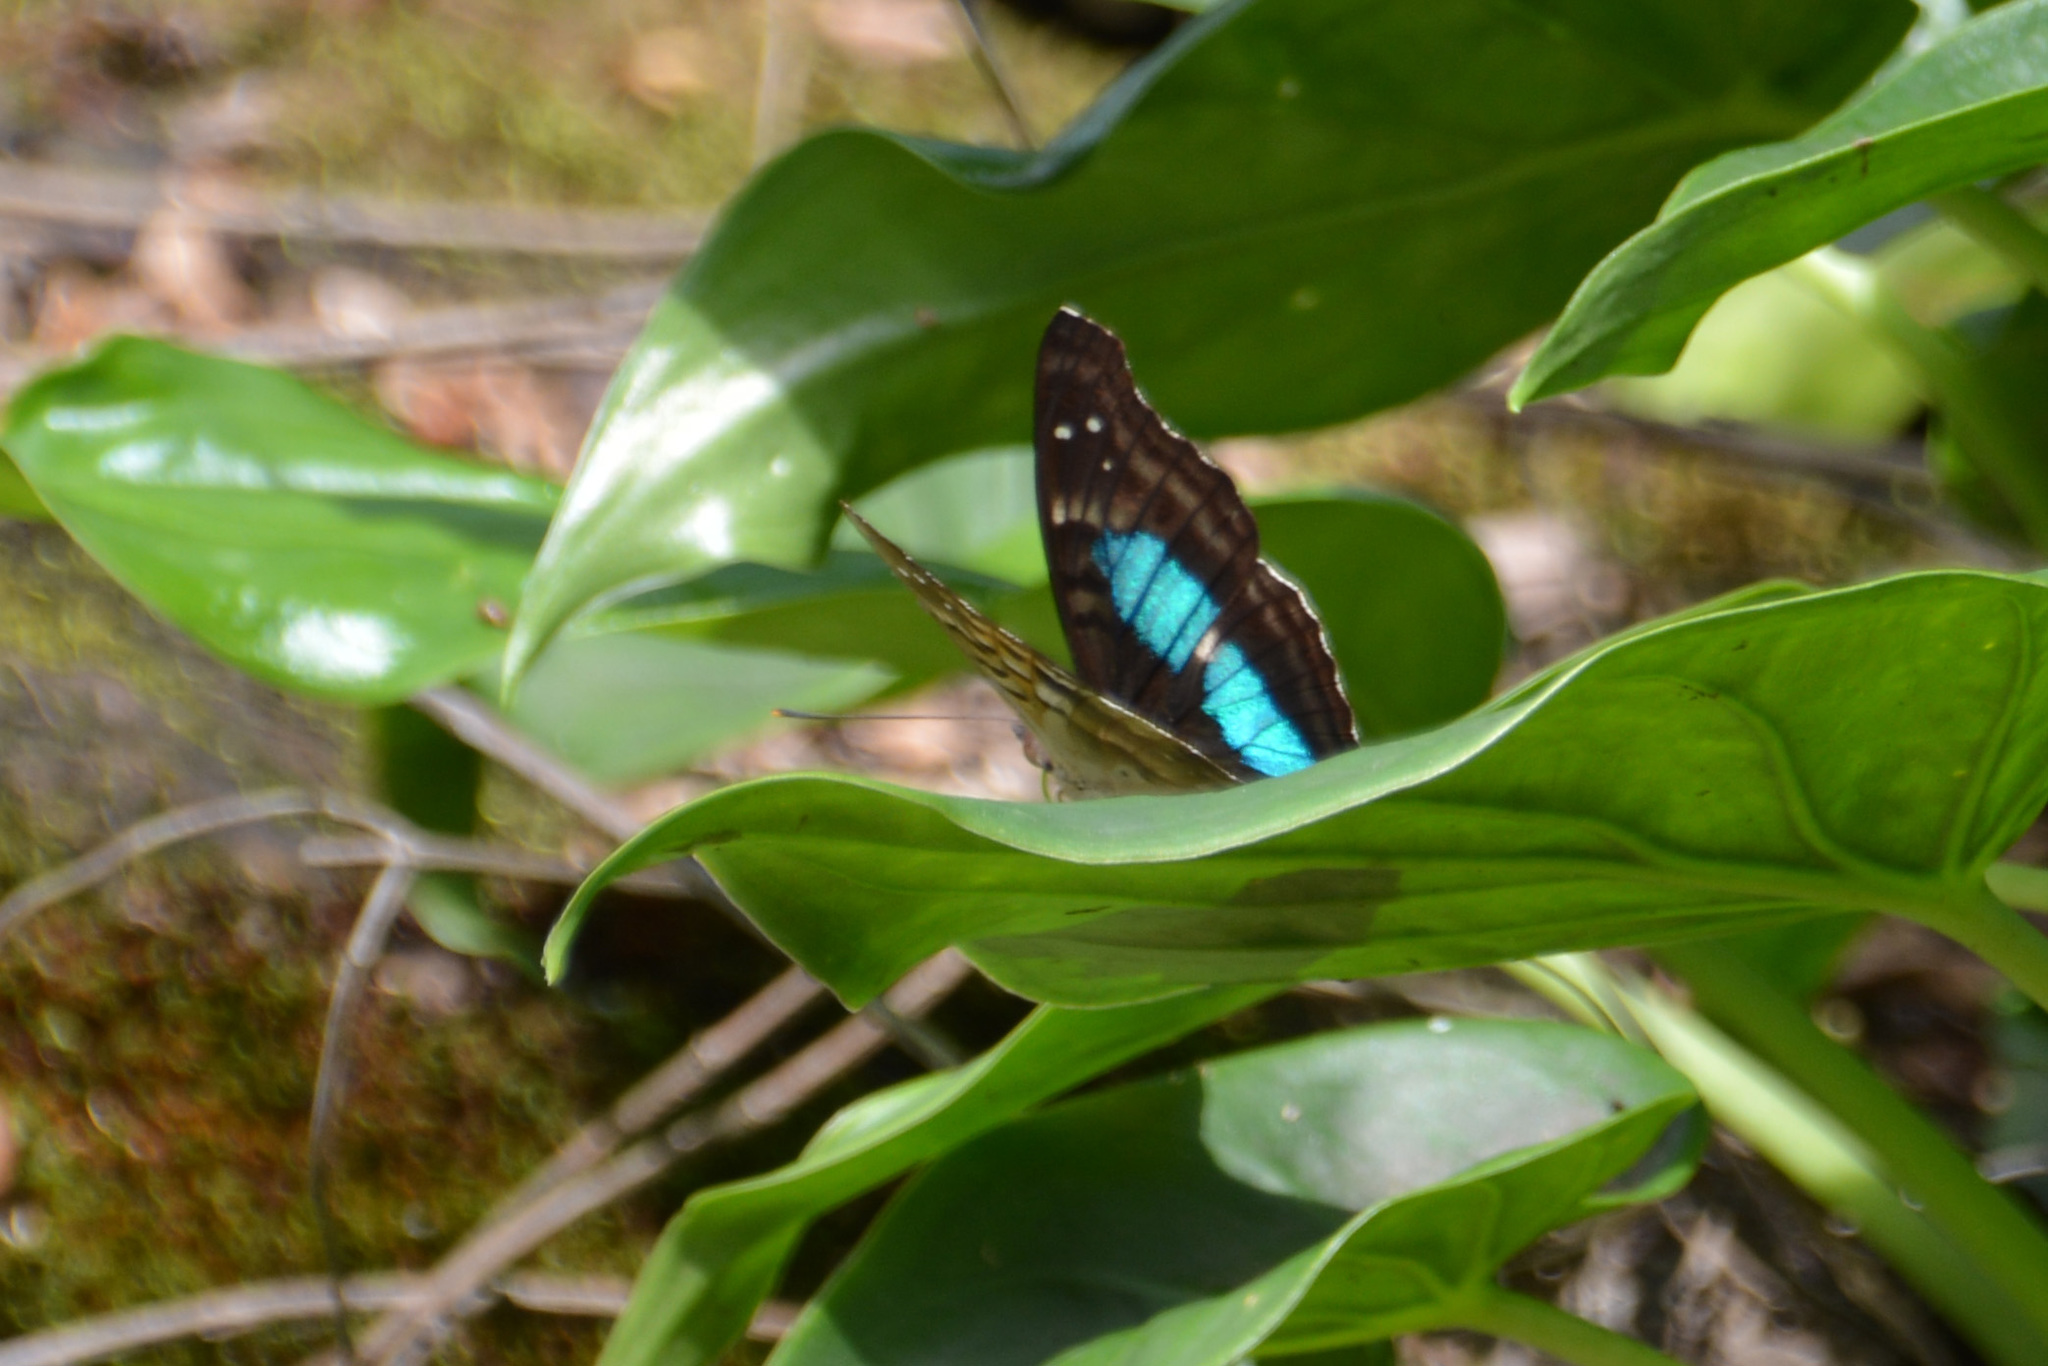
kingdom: Animalia
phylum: Arthropoda
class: Insecta
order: Lepidoptera
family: Nymphalidae
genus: Doxocopa
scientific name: Doxocopa laurentia
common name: Turquoise emperor
